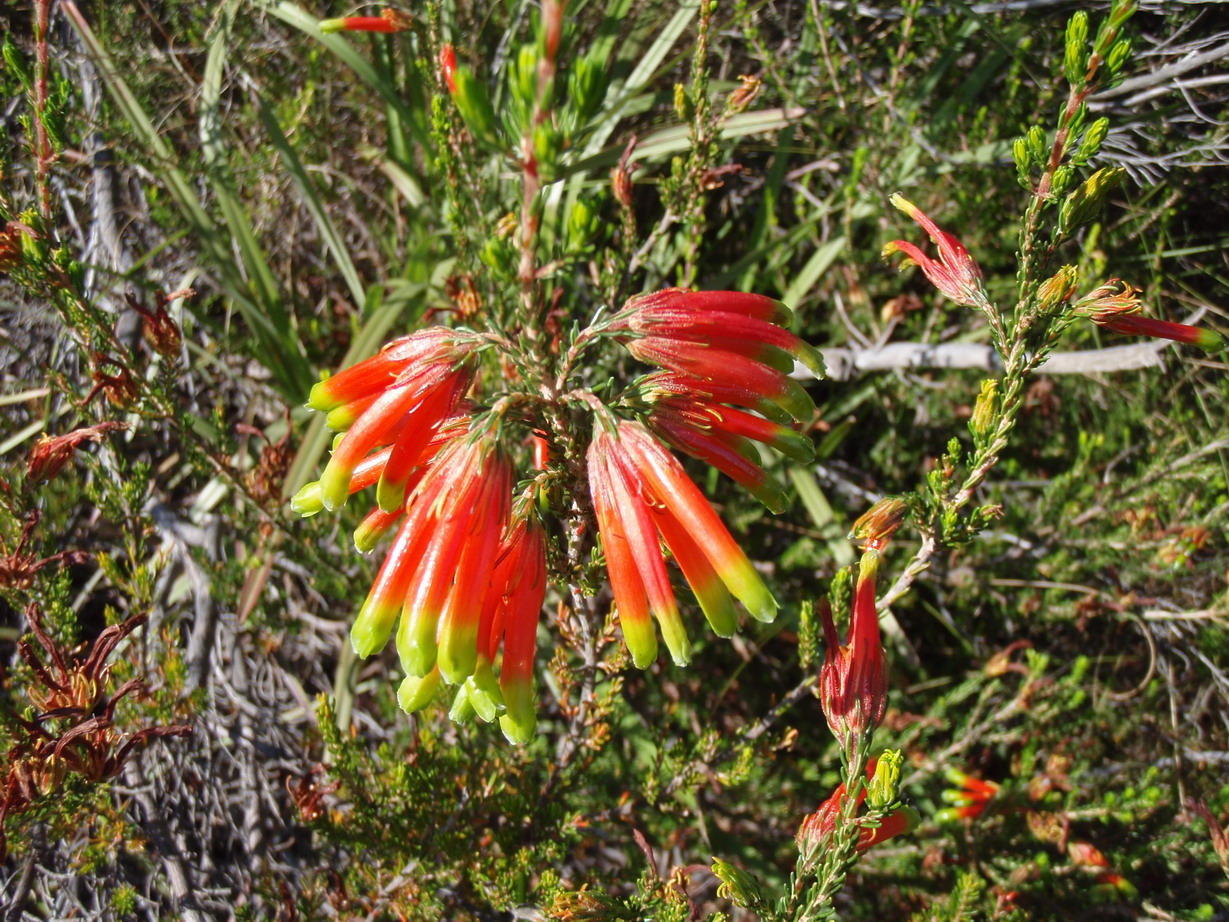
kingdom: Plantae
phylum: Tracheophyta
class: Magnoliopsida
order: Ericales
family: Ericaceae
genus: Erica
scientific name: Erica unicolor
